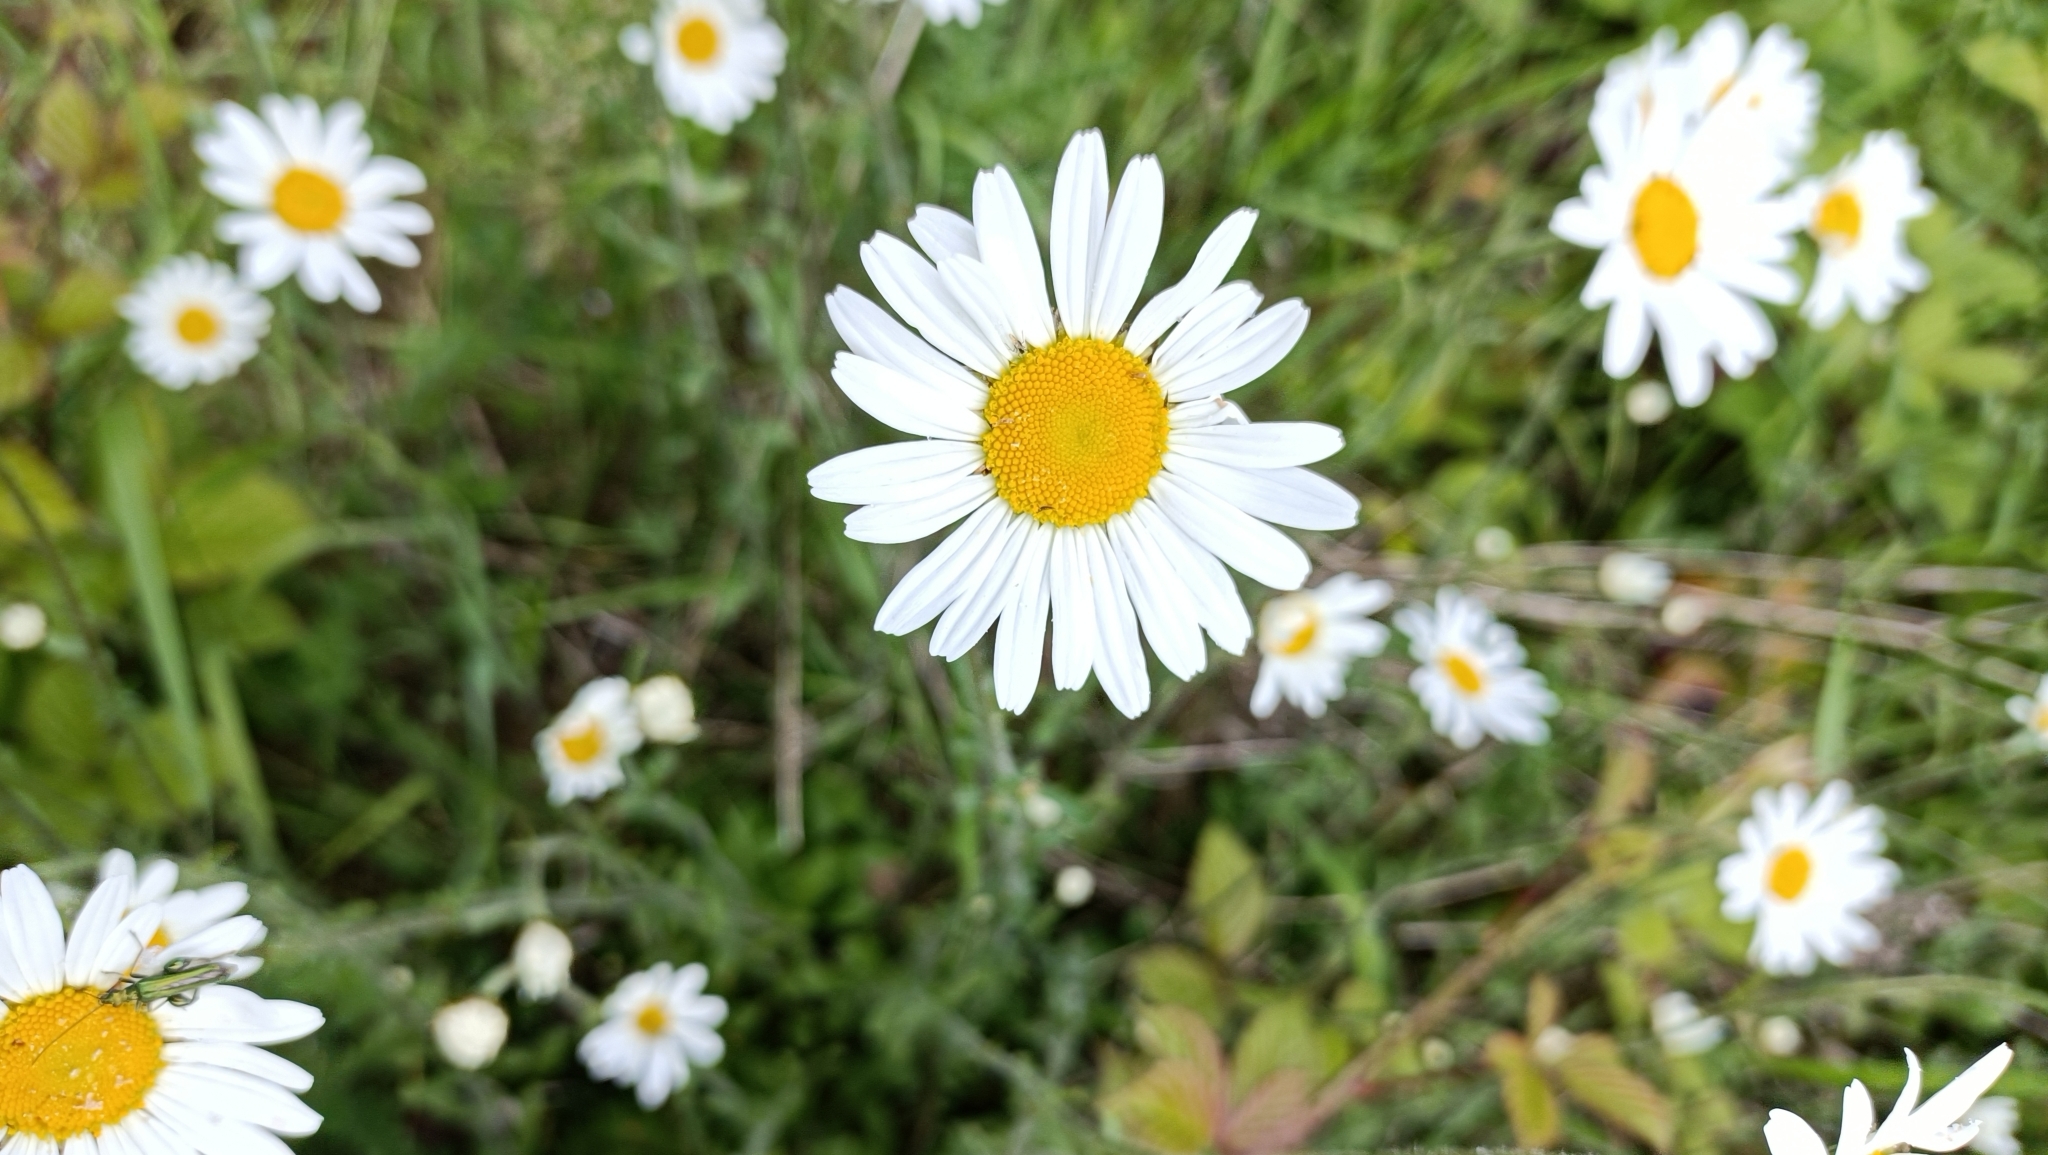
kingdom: Plantae
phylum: Tracheophyta
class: Magnoliopsida
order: Asterales
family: Asteraceae
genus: Leucanthemum
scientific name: Leucanthemum vulgare
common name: Oxeye daisy
